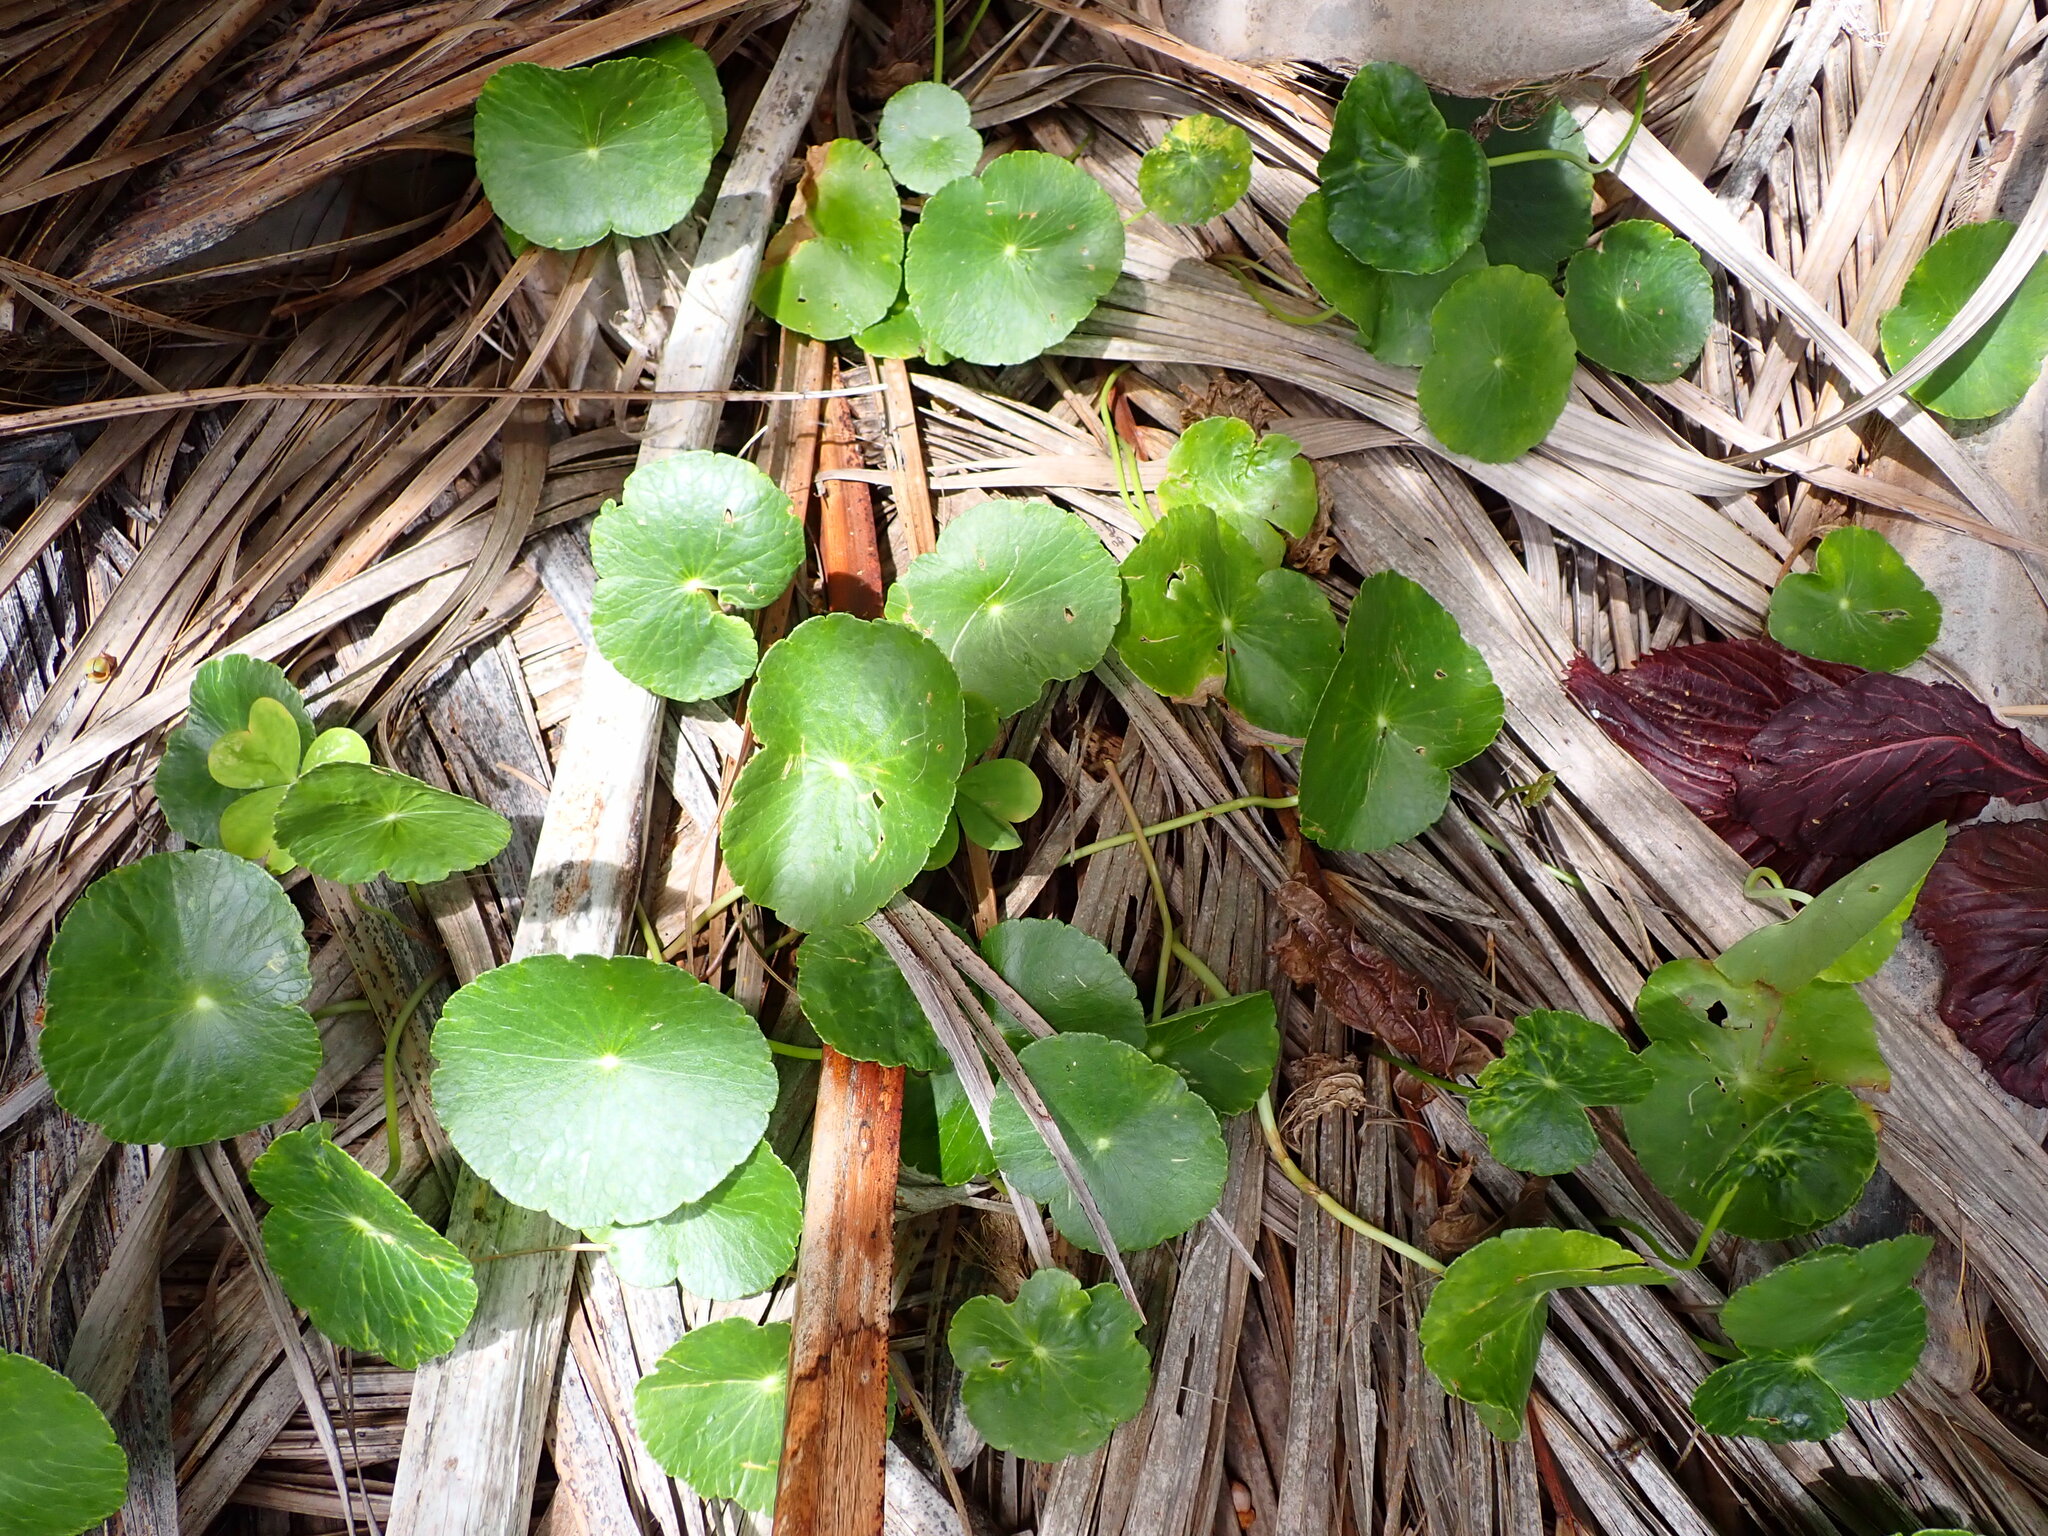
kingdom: Plantae
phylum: Tracheophyta
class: Magnoliopsida
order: Apiales
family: Araliaceae
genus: Hydrocotyle
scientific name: Hydrocotyle bonariensis
